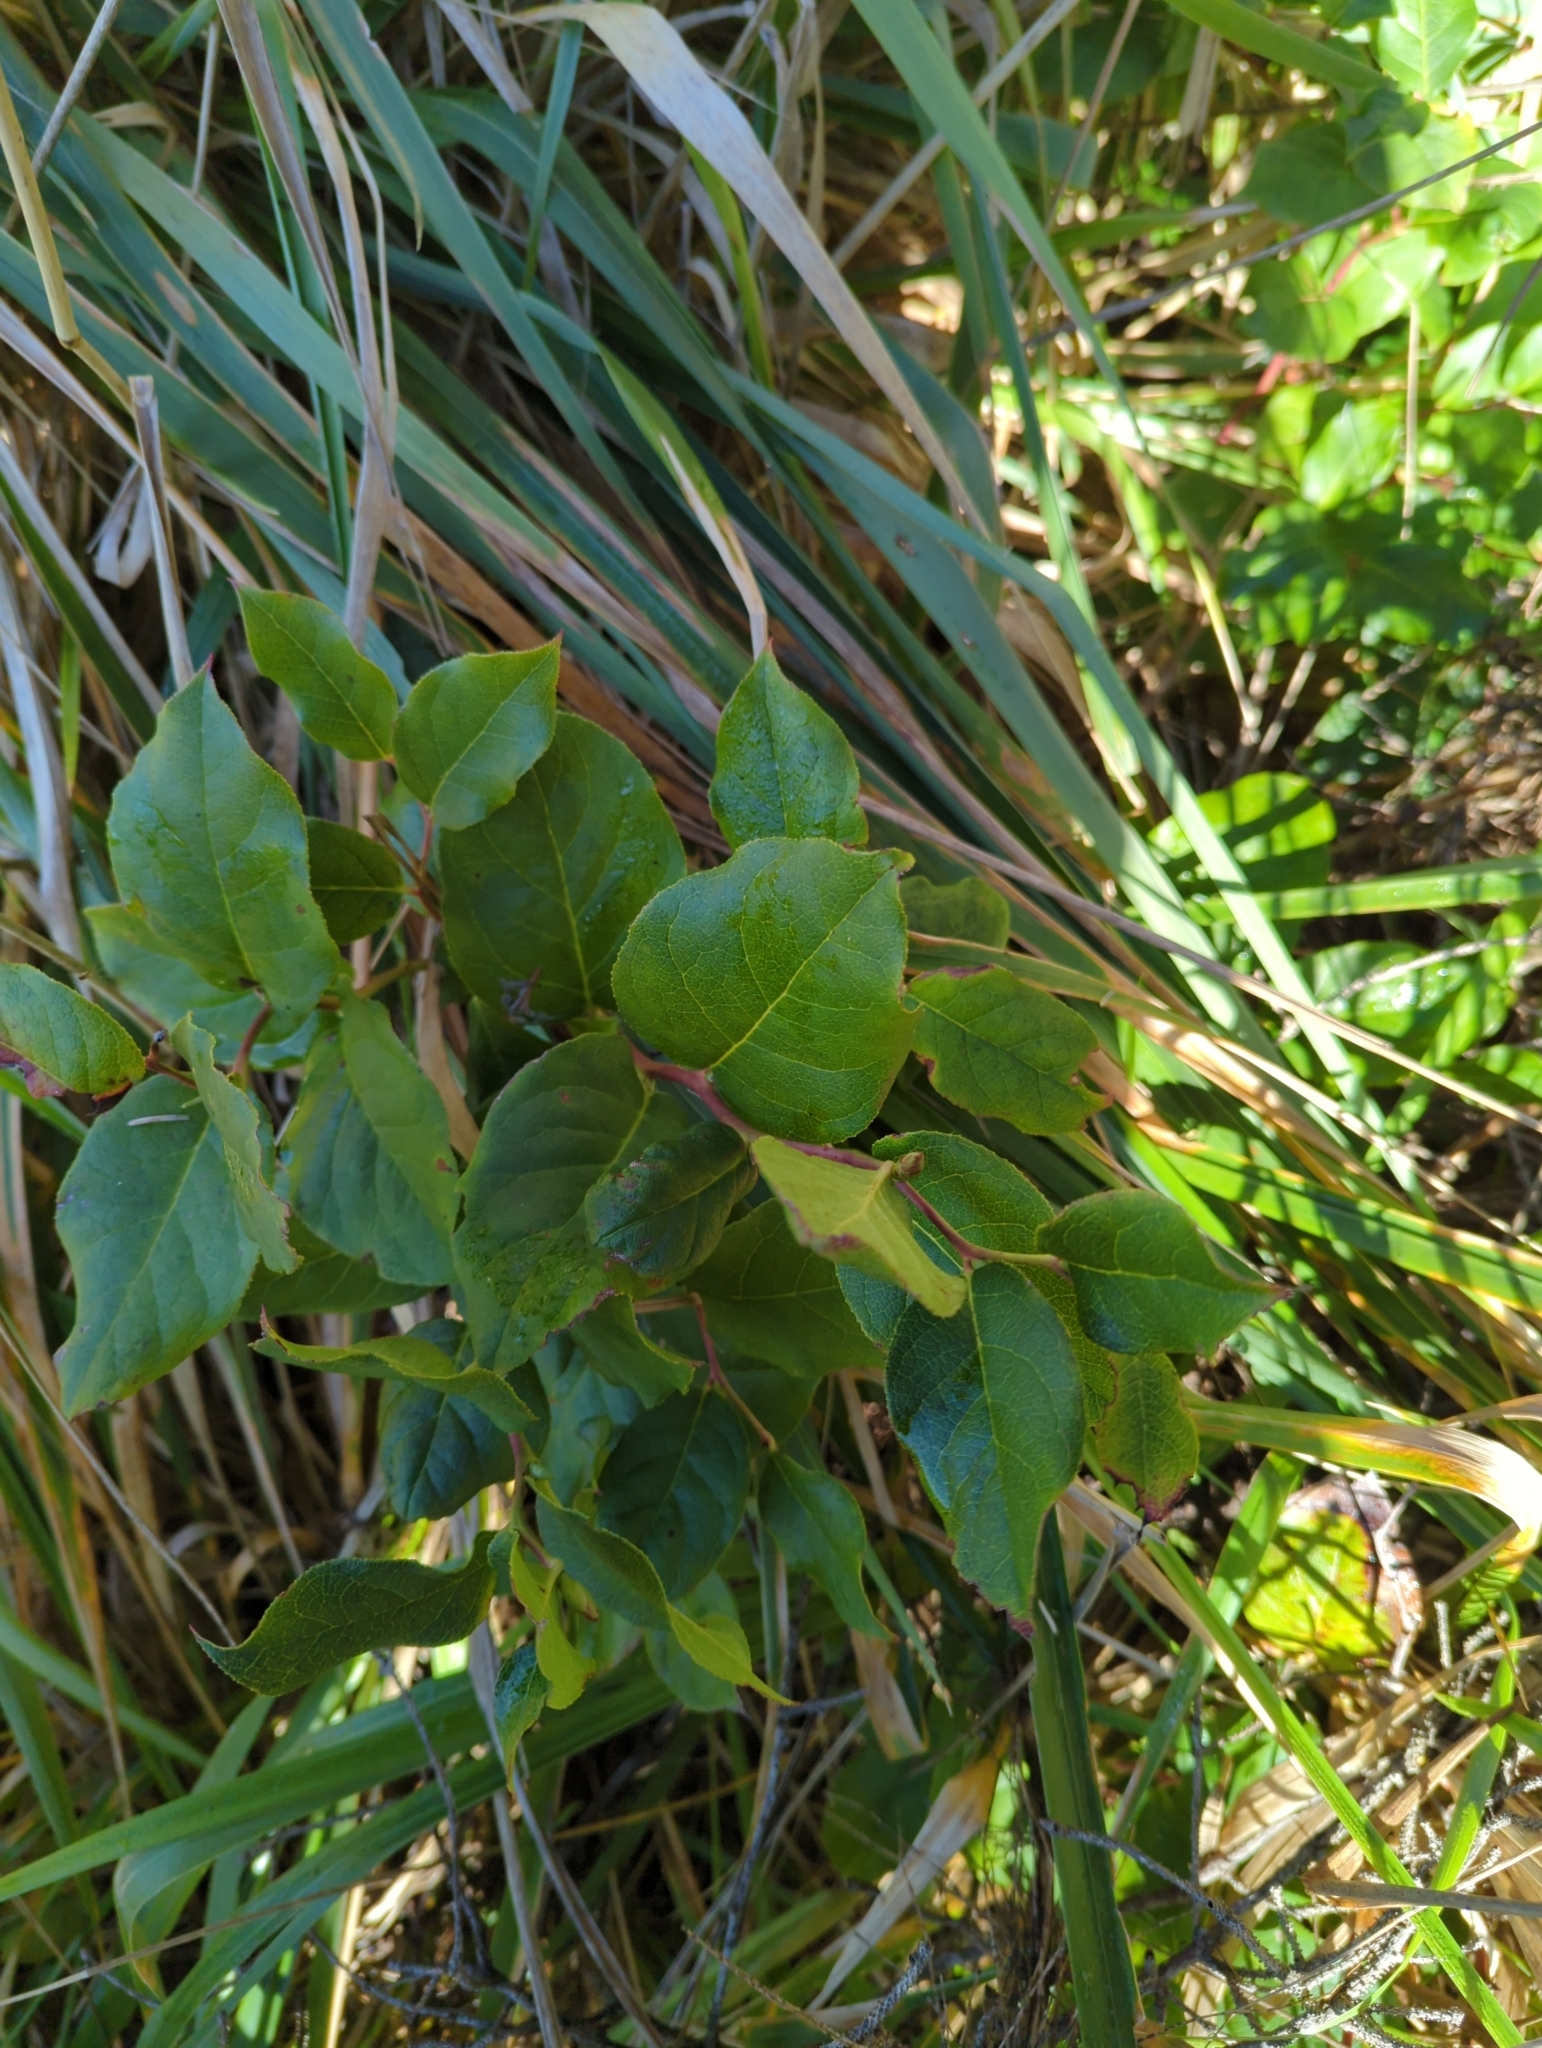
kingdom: Plantae
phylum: Tracheophyta
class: Magnoliopsida
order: Ericales
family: Ericaceae
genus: Gaultheria
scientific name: Gaultheria shallon
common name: Shallon
